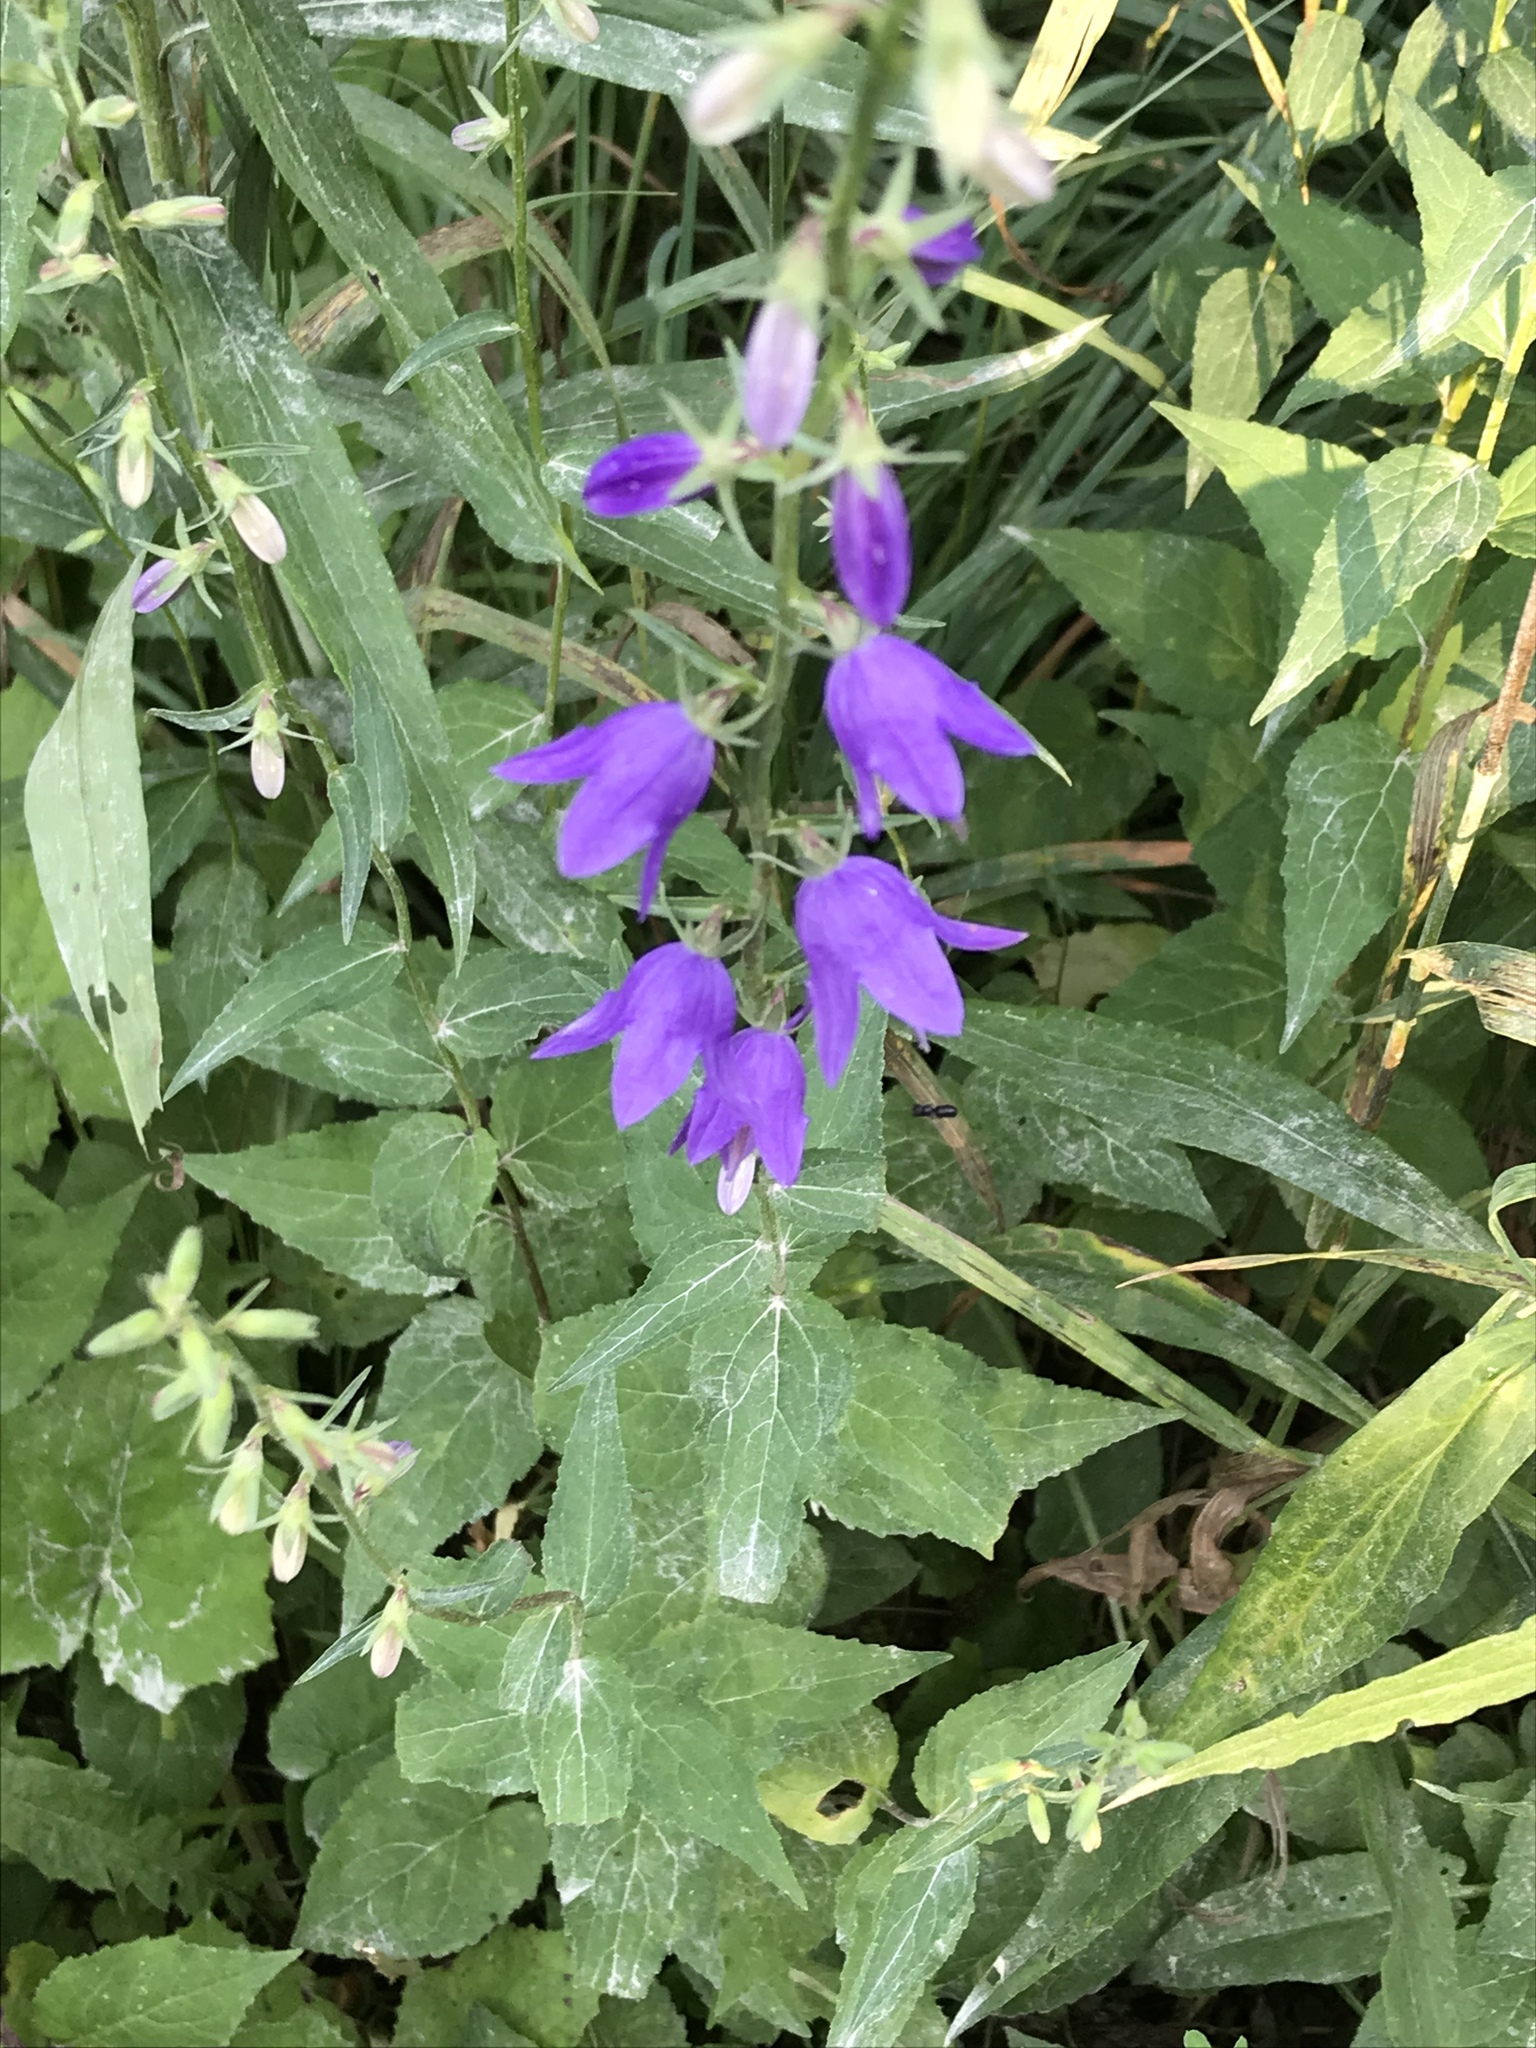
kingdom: Plantae
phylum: Tracheophyta
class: Magnoliopsida
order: Asterales
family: Campanulaceae
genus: Campanula
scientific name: Campanula rapunculoides
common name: Creeping bellflower
